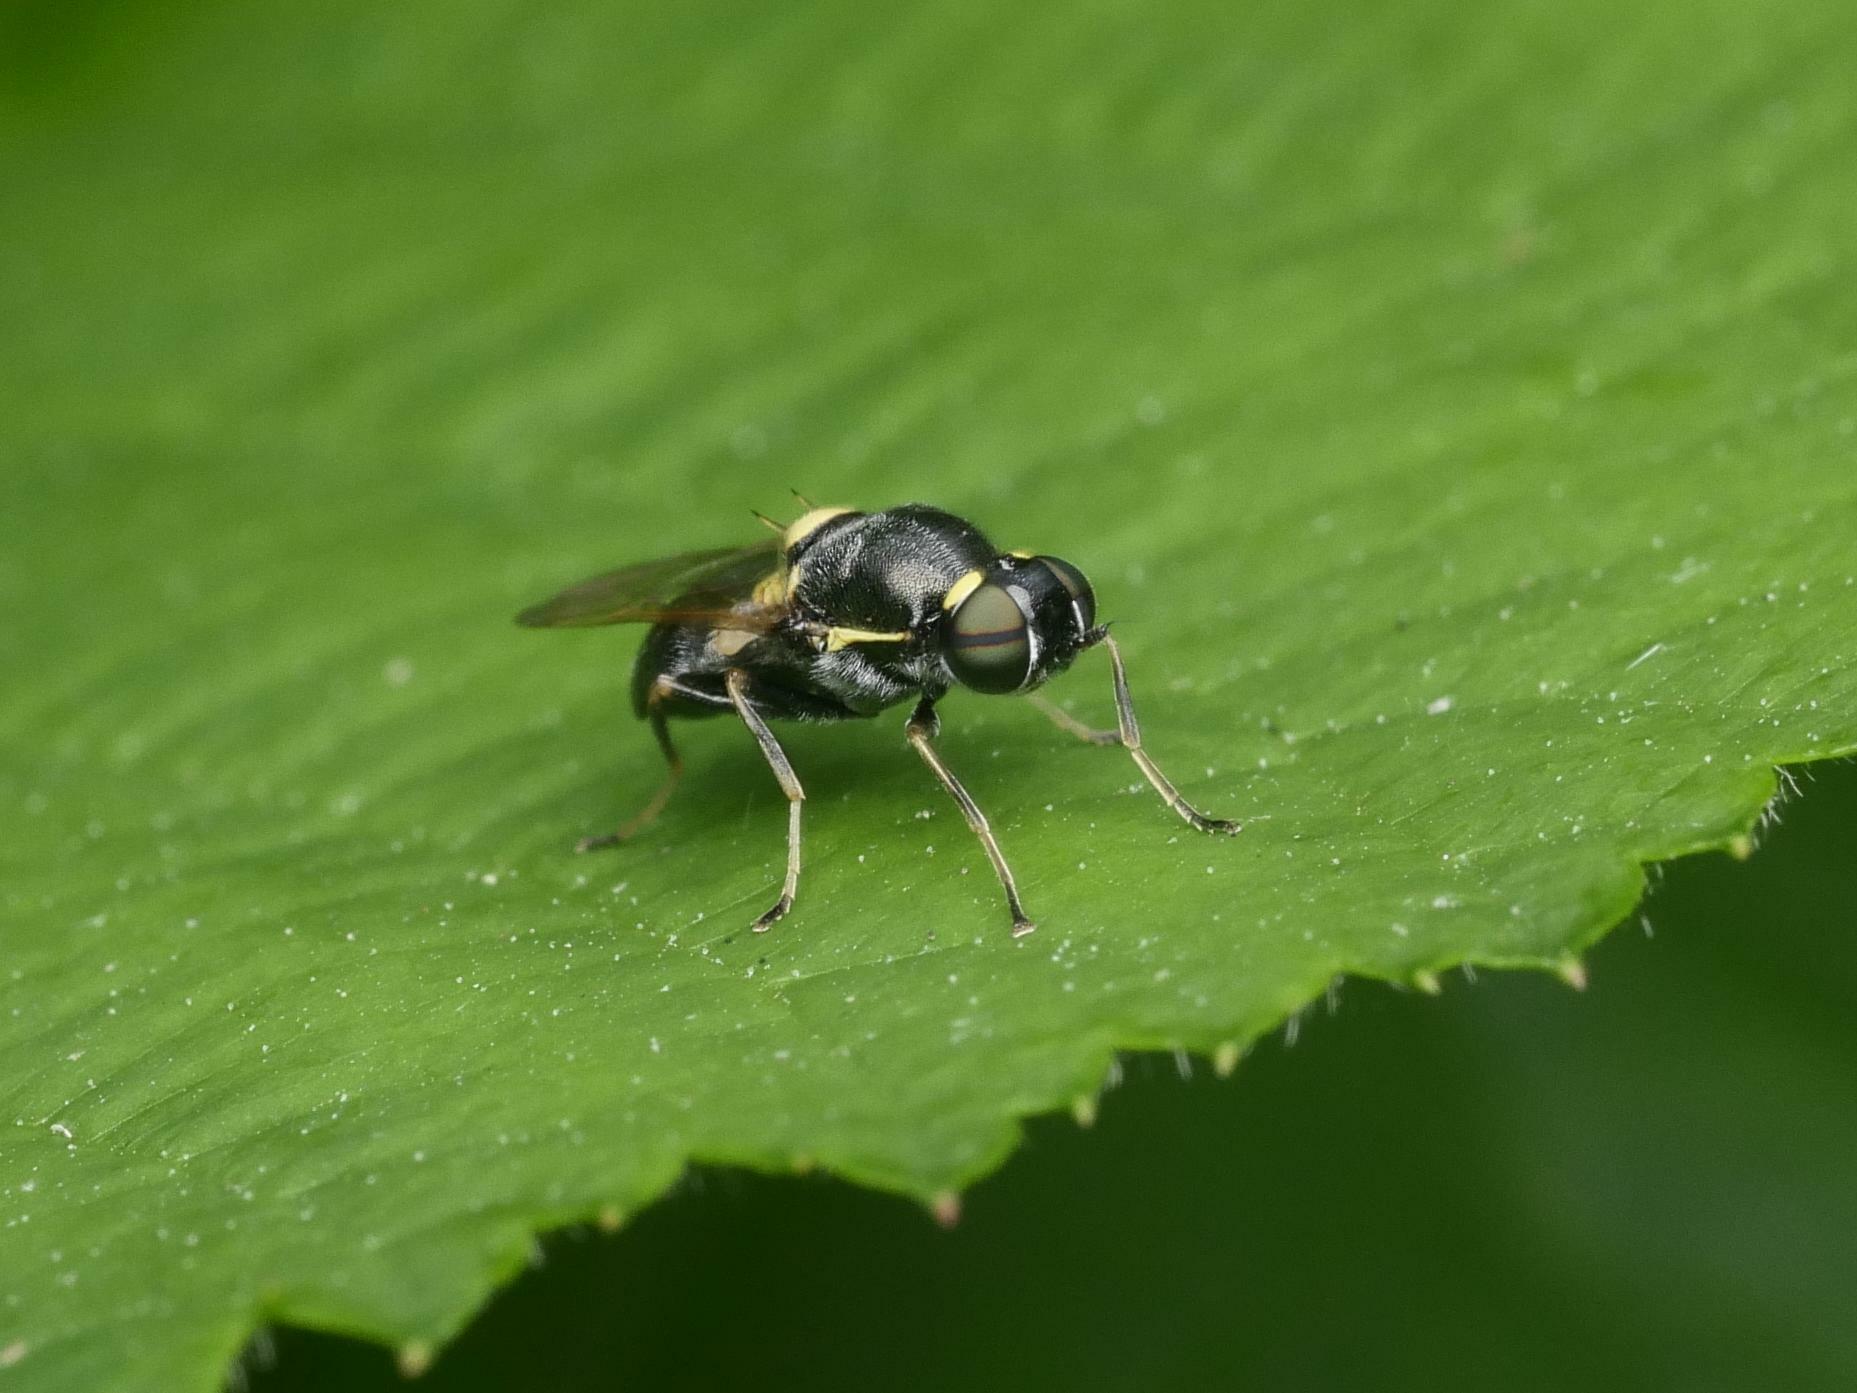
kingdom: Animalia
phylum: Arthropoda
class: Insecta
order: Diptera
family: Stratiomyidae
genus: Oxycera
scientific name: Oxycera leonina
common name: Twin-spotted major
